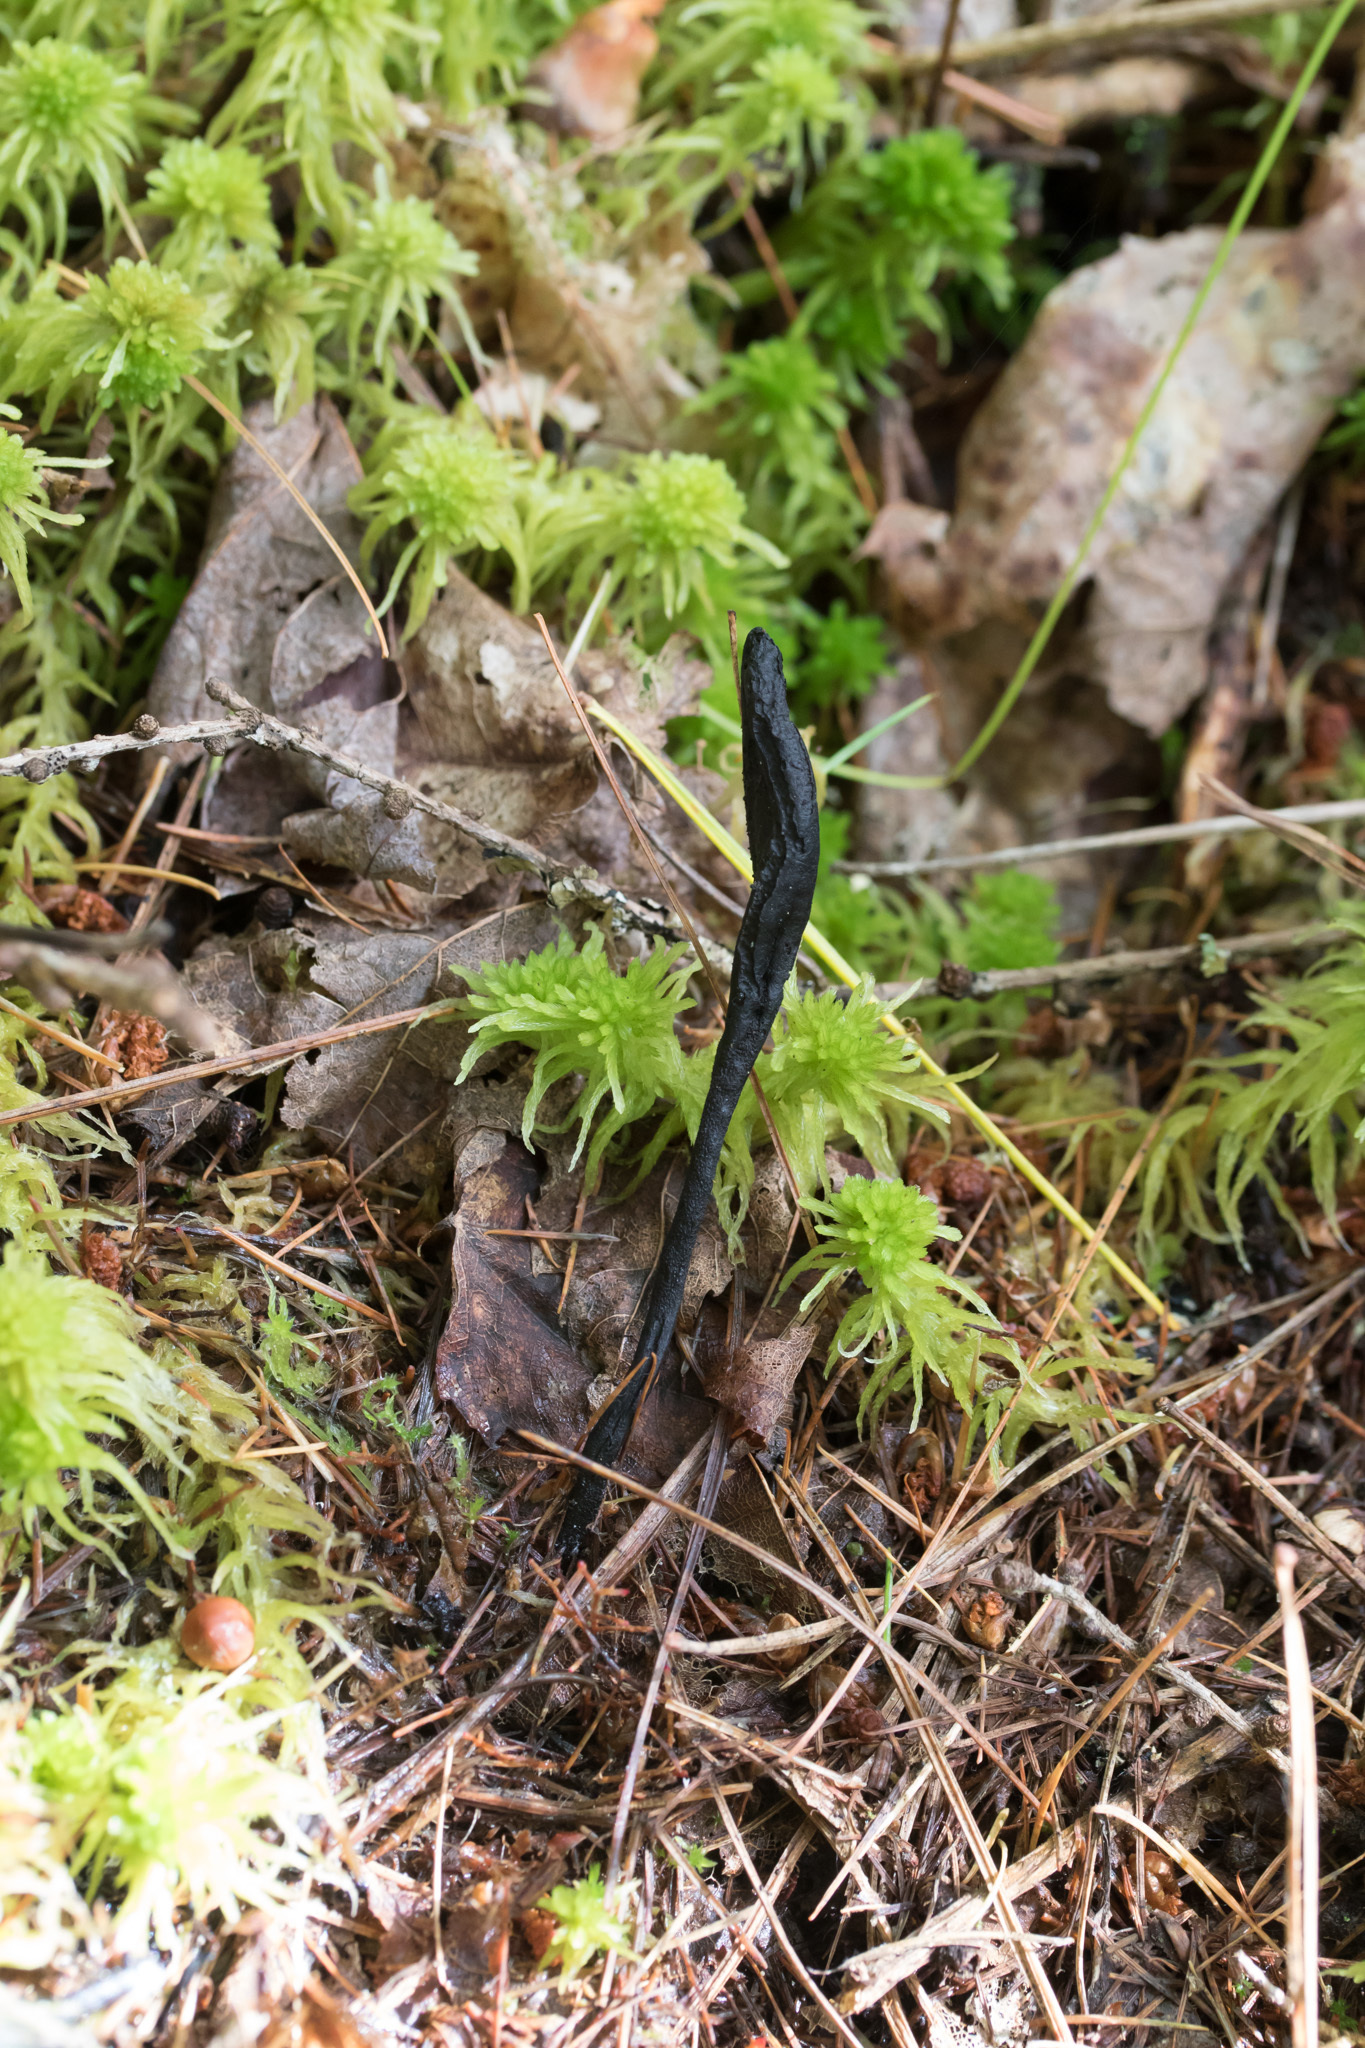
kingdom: Fungi
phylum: Ascomycota
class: Geoglossomycetes
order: Geoglossales
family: Geoglossaceae
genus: Geoglossum
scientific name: Geoglossum nigritum
